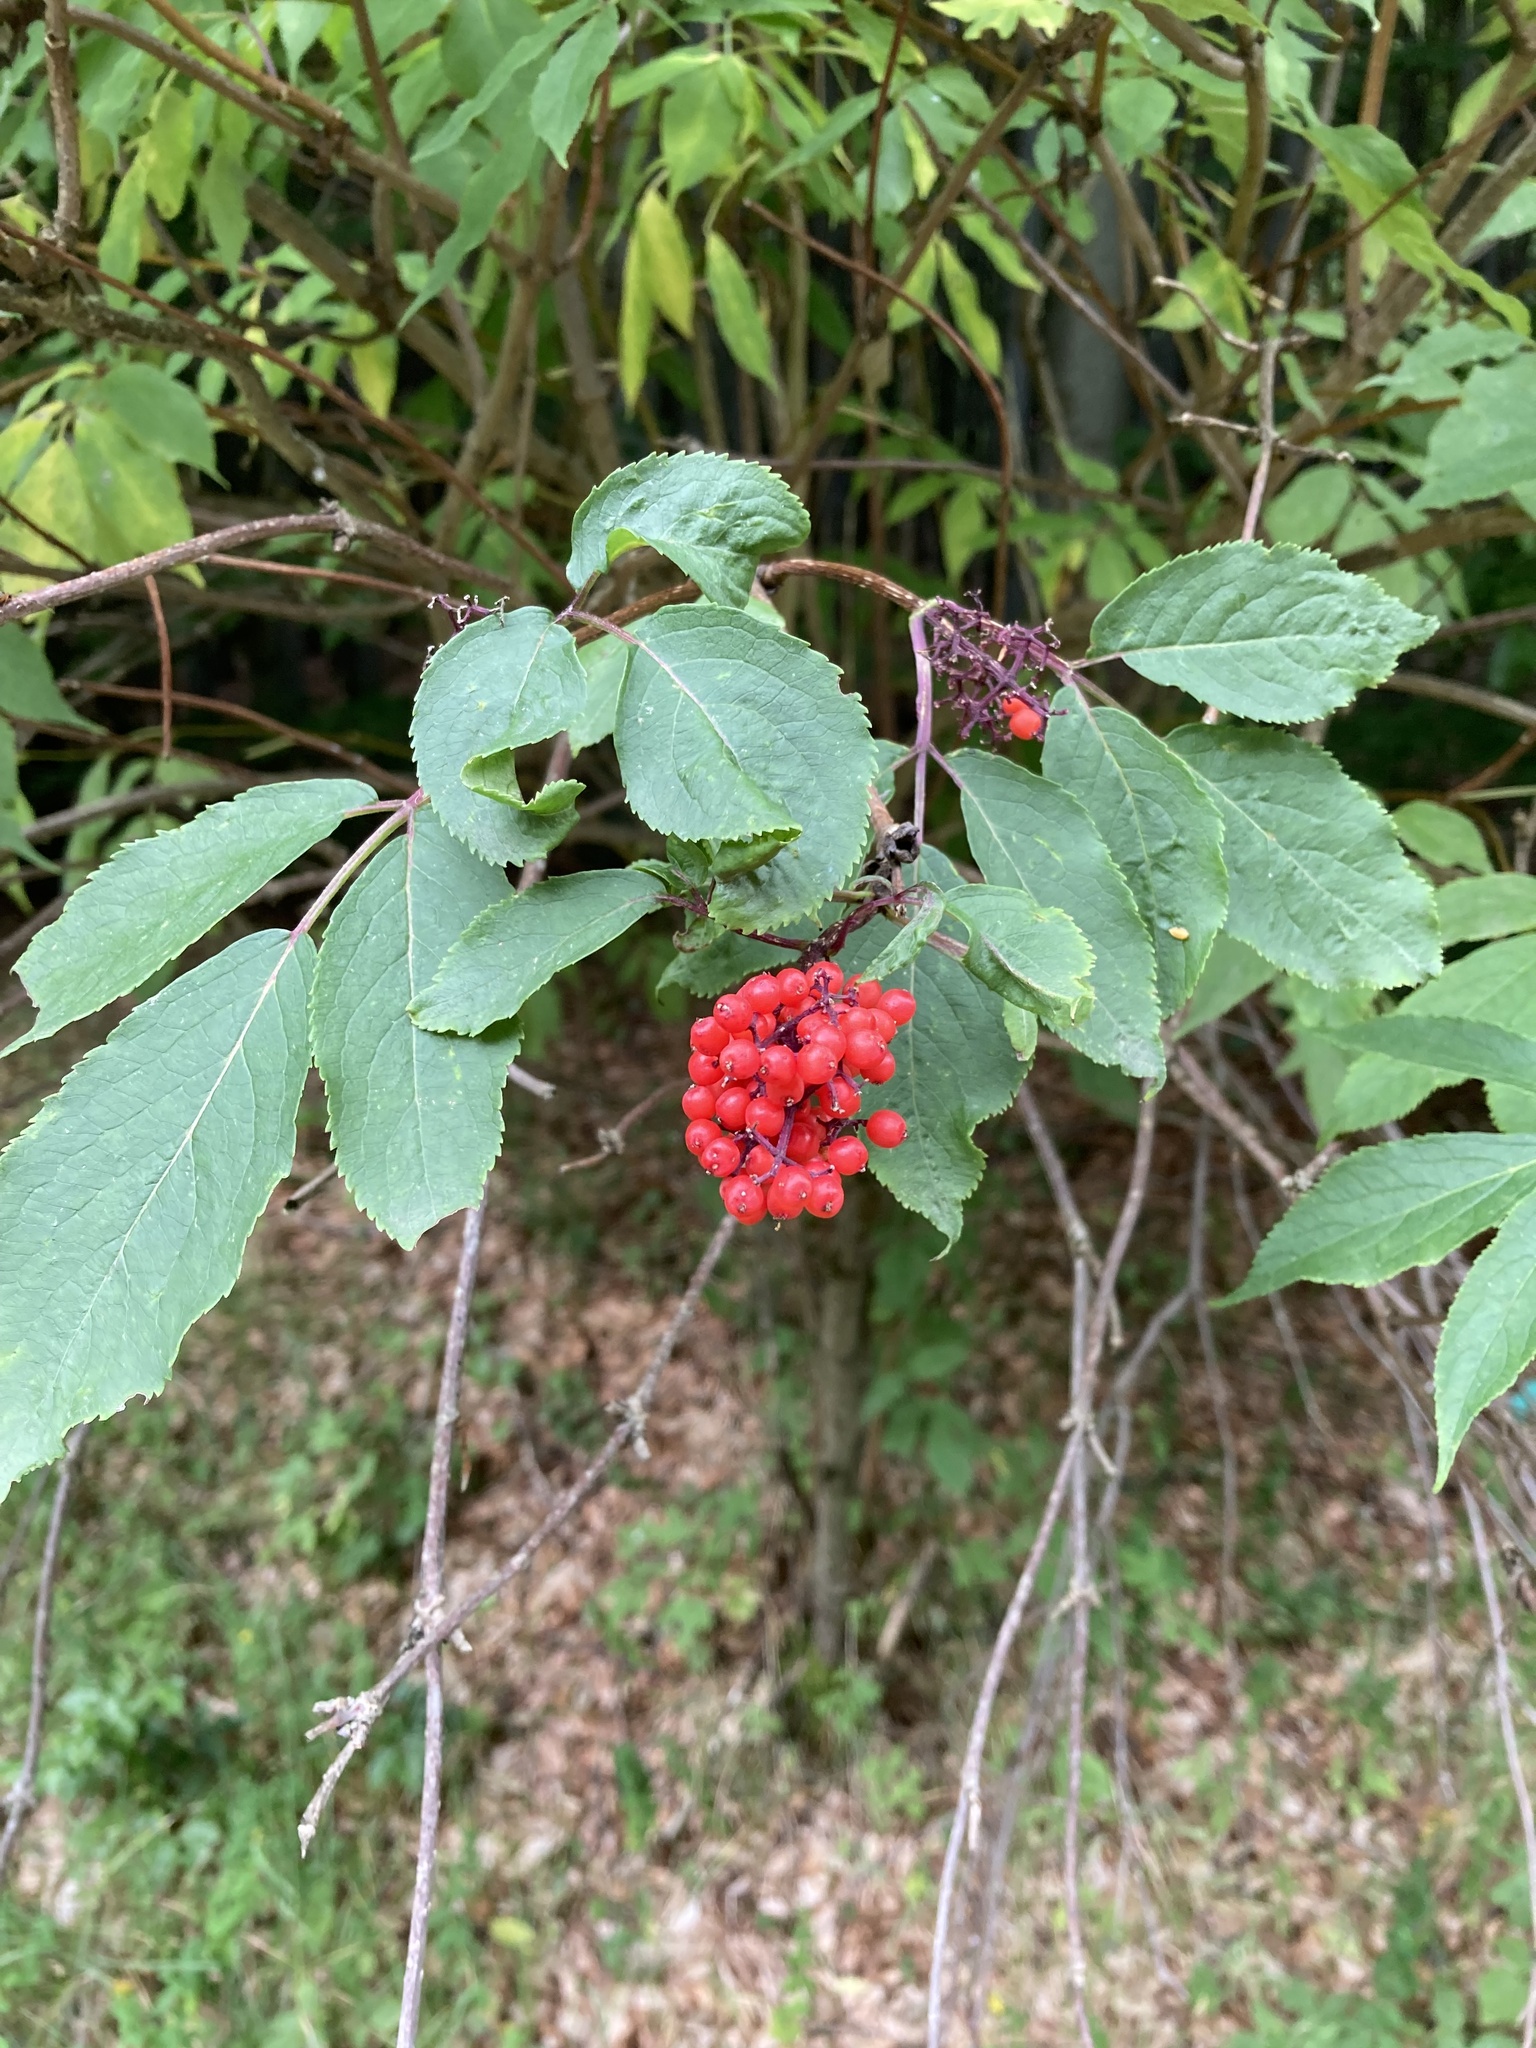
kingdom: Plantae
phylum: Tracheophyta
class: Magnoliopsida
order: Dipsacales
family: Viburnaceae
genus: Sambucus
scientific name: Sambucus racemosa
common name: Red-berried elder
